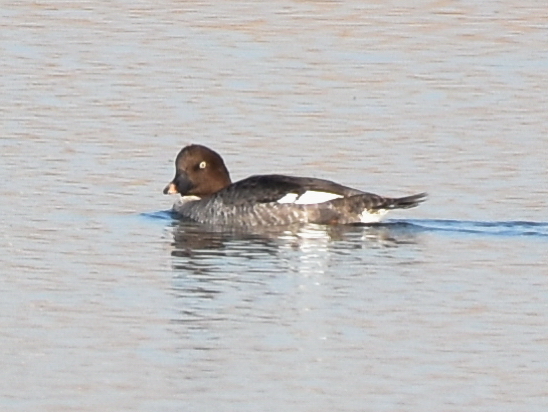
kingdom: Animalia
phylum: Chordata
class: Aves
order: Anseriformes
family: Anatidae
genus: Bucephala
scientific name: Bucephala clangula
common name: Common goldeneye
